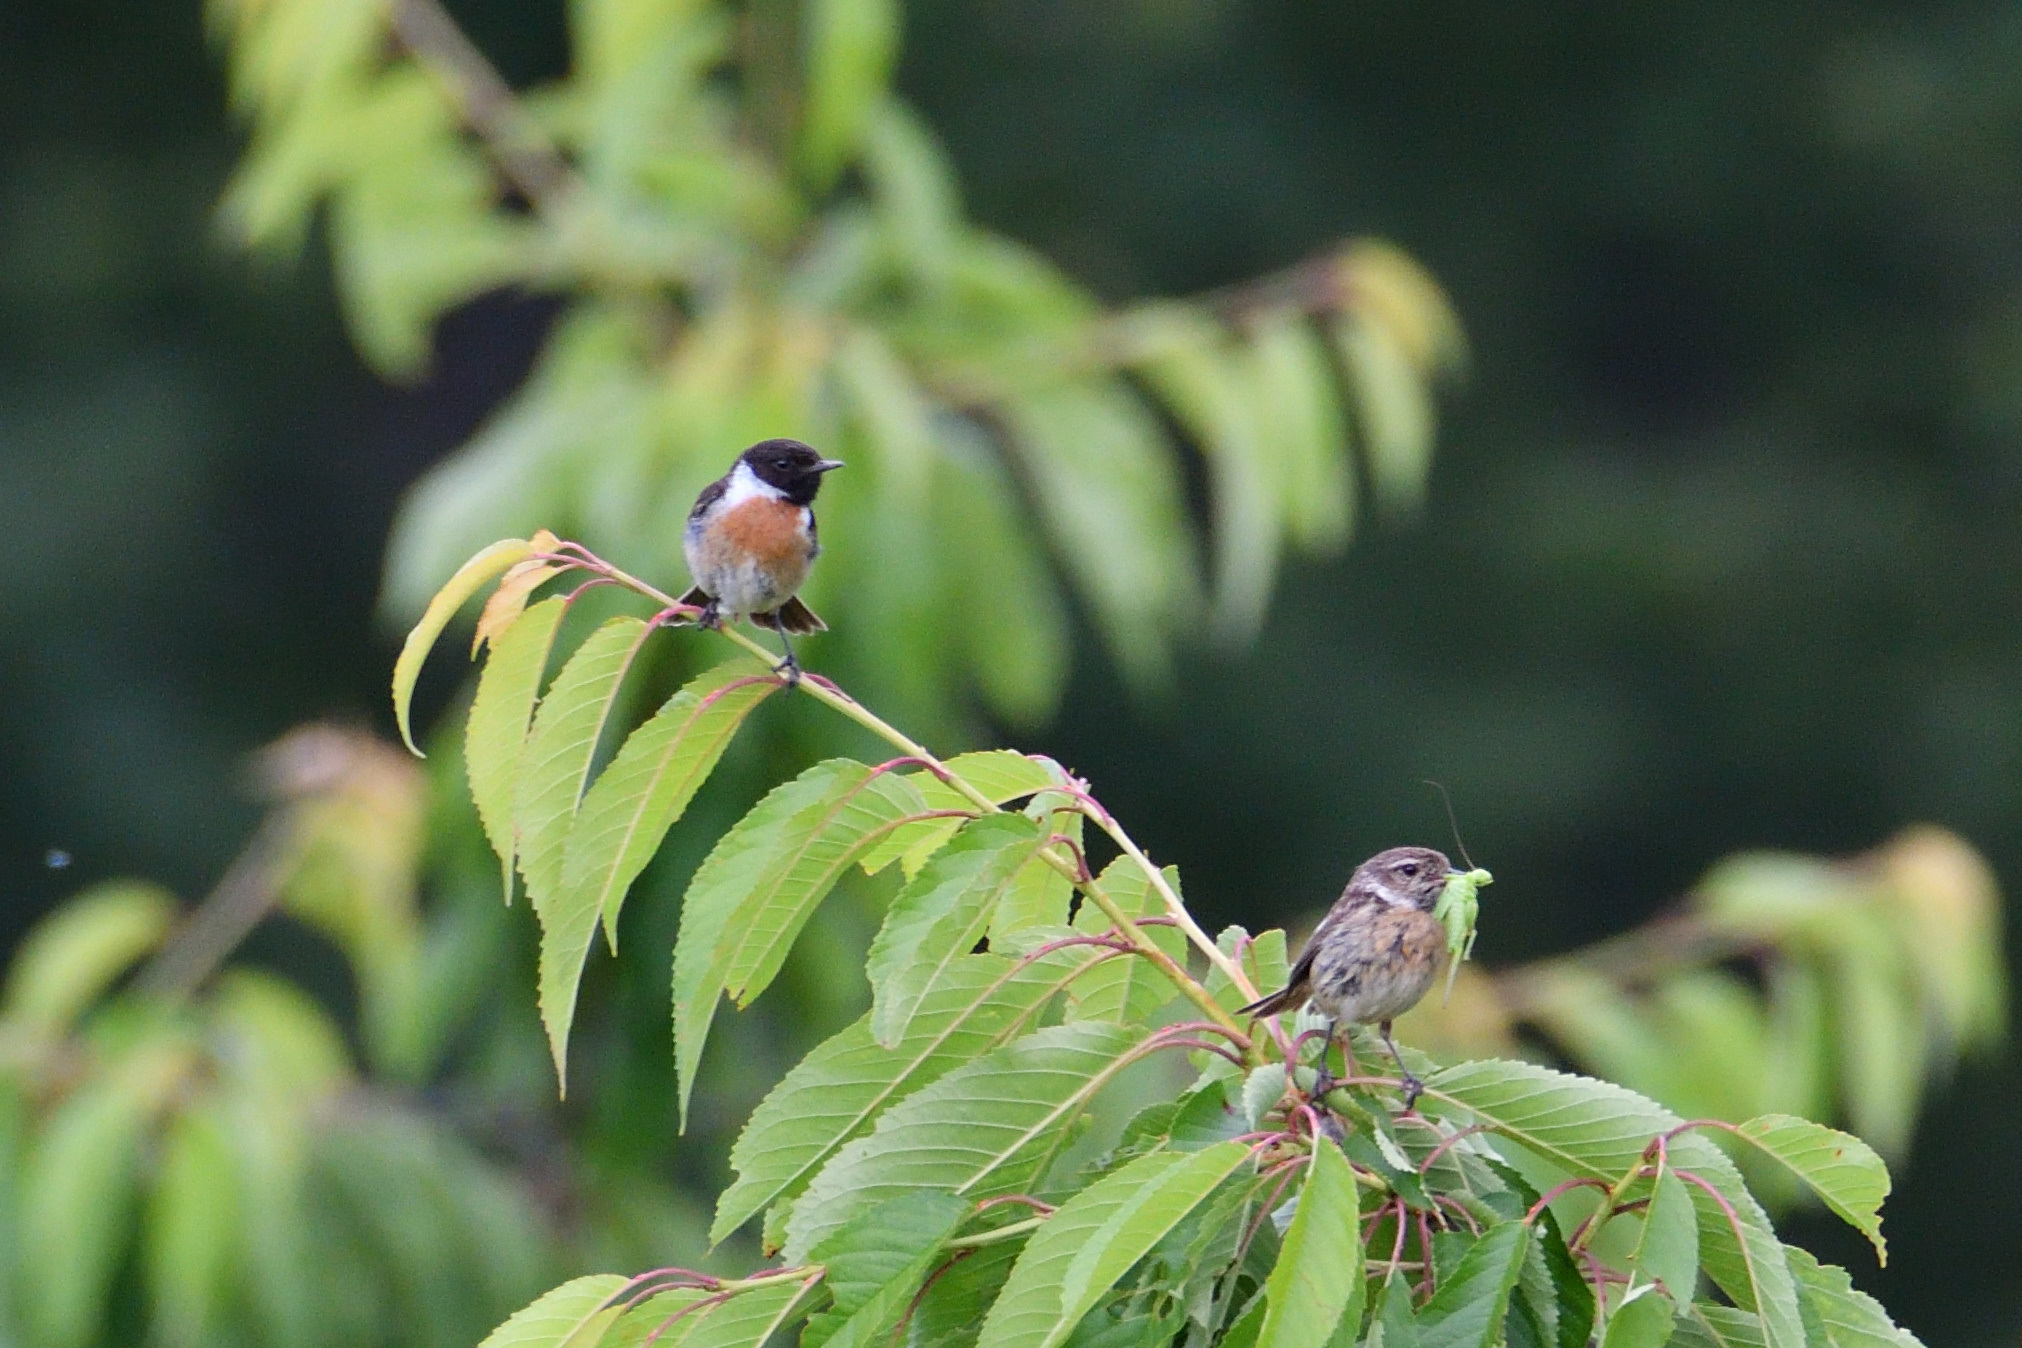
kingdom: Animalia
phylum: Chordata
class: Aves
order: Passeriformes
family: Muscicapidae
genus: Saxicola
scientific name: Saxicola rubicola
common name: European stonechat
